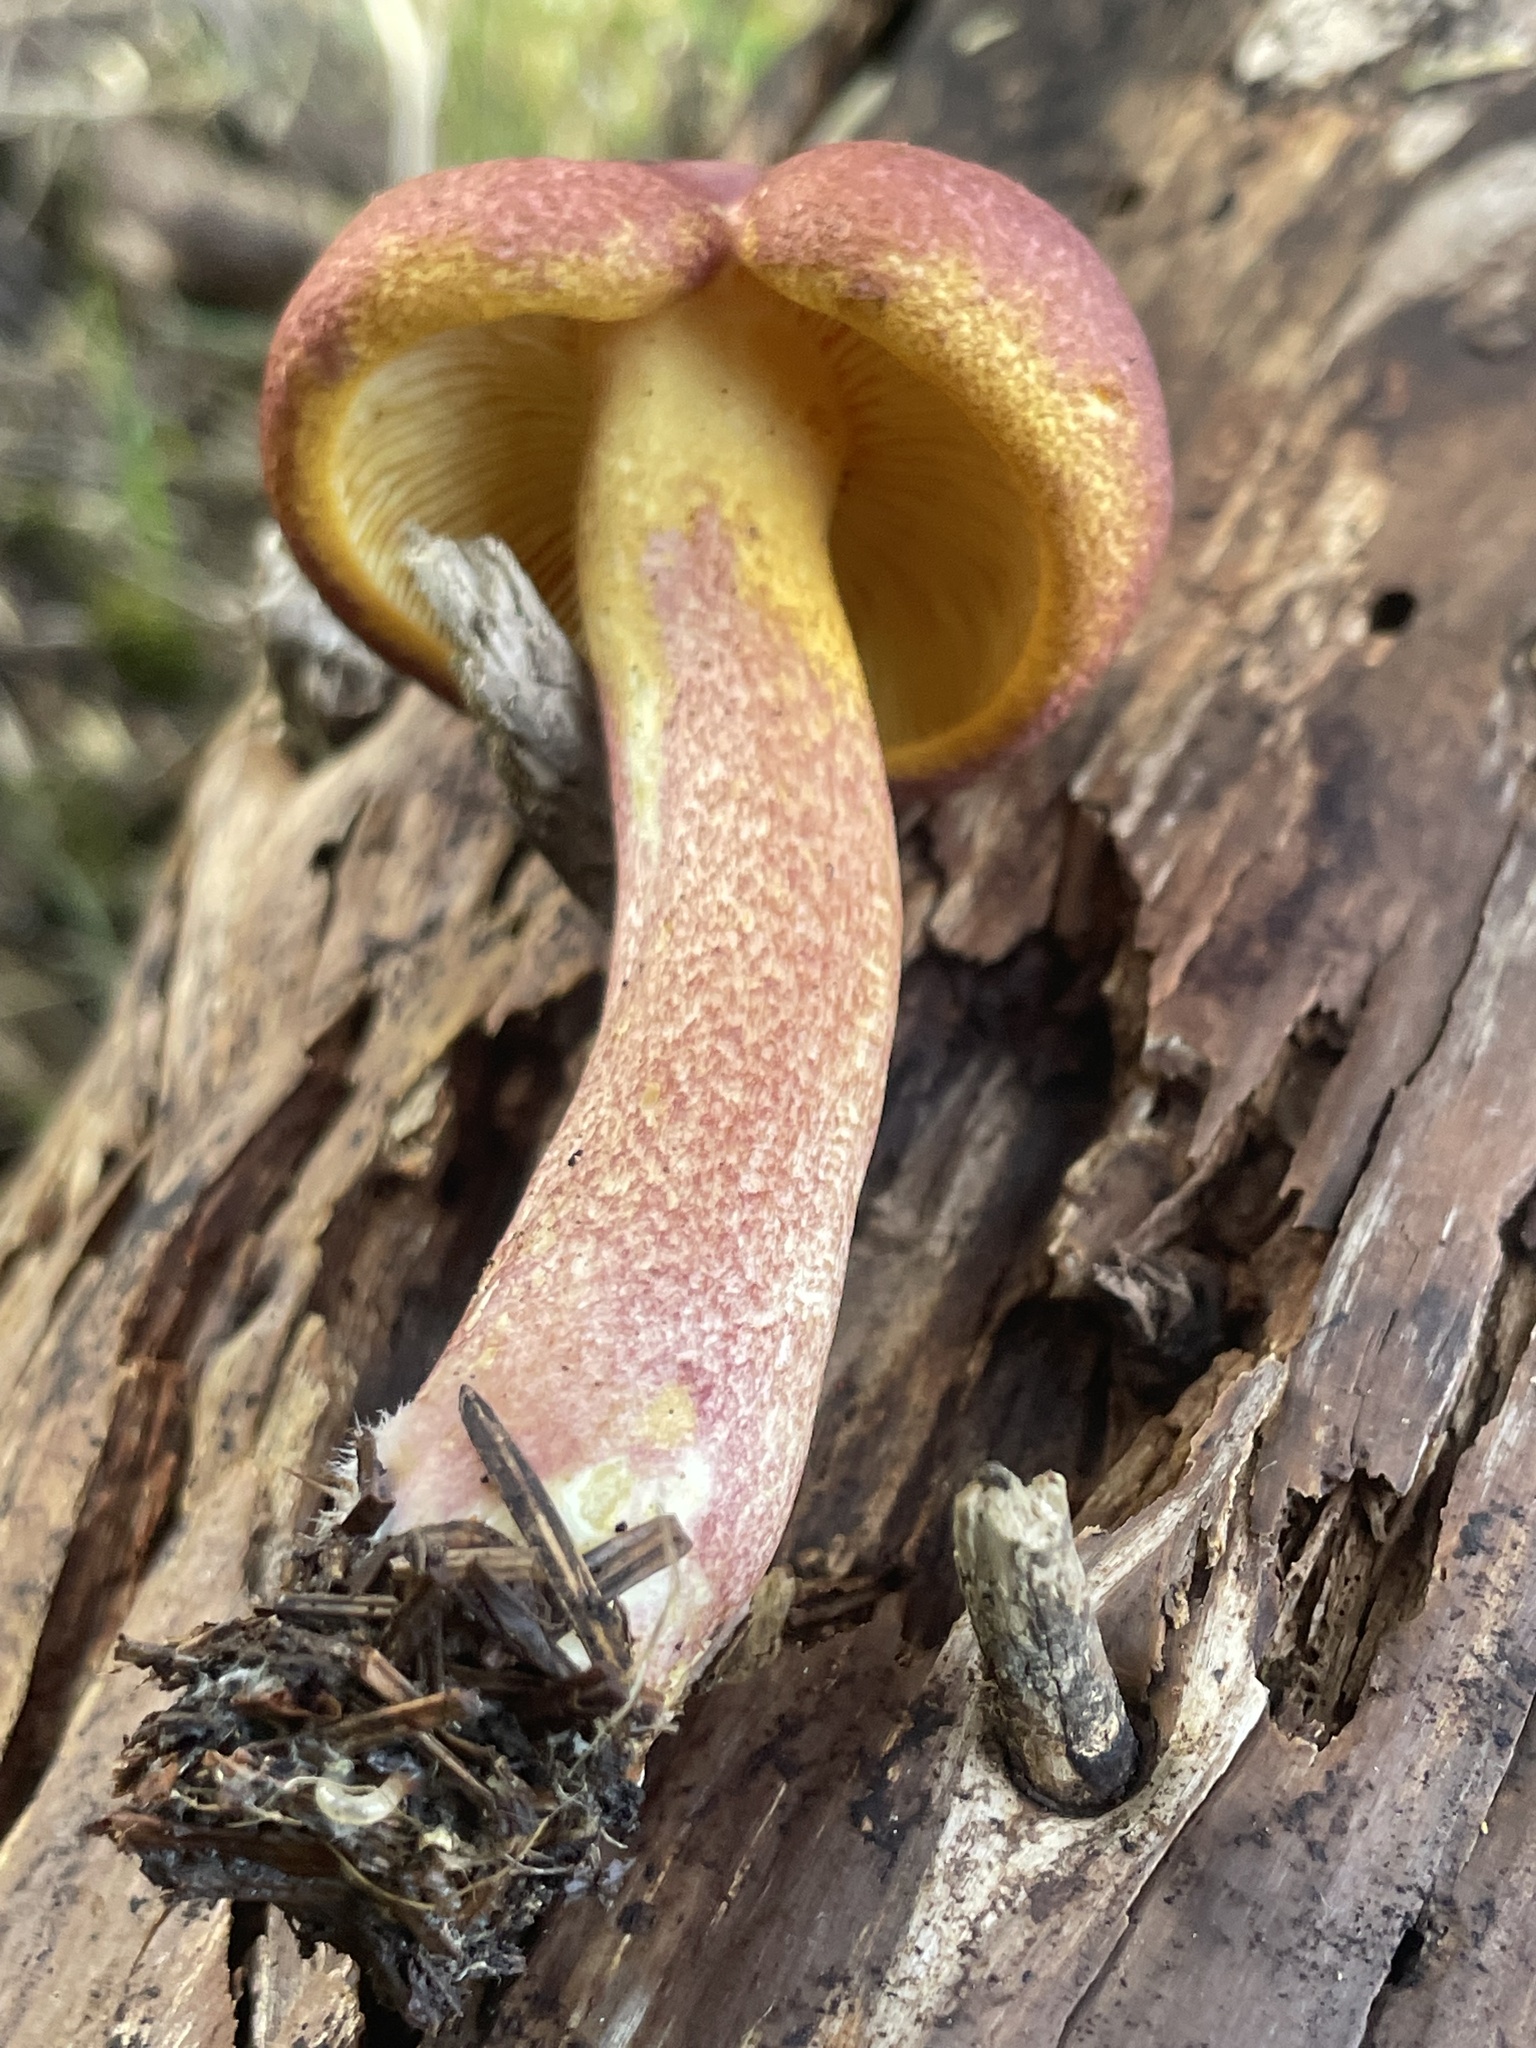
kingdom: Fungi
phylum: Basidiomycota
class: Agaricomycetes
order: Agaricales
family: Tricholomataceae
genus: Tricholomopsis
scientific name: Tricholomopsis rutilans
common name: Plums and custard
